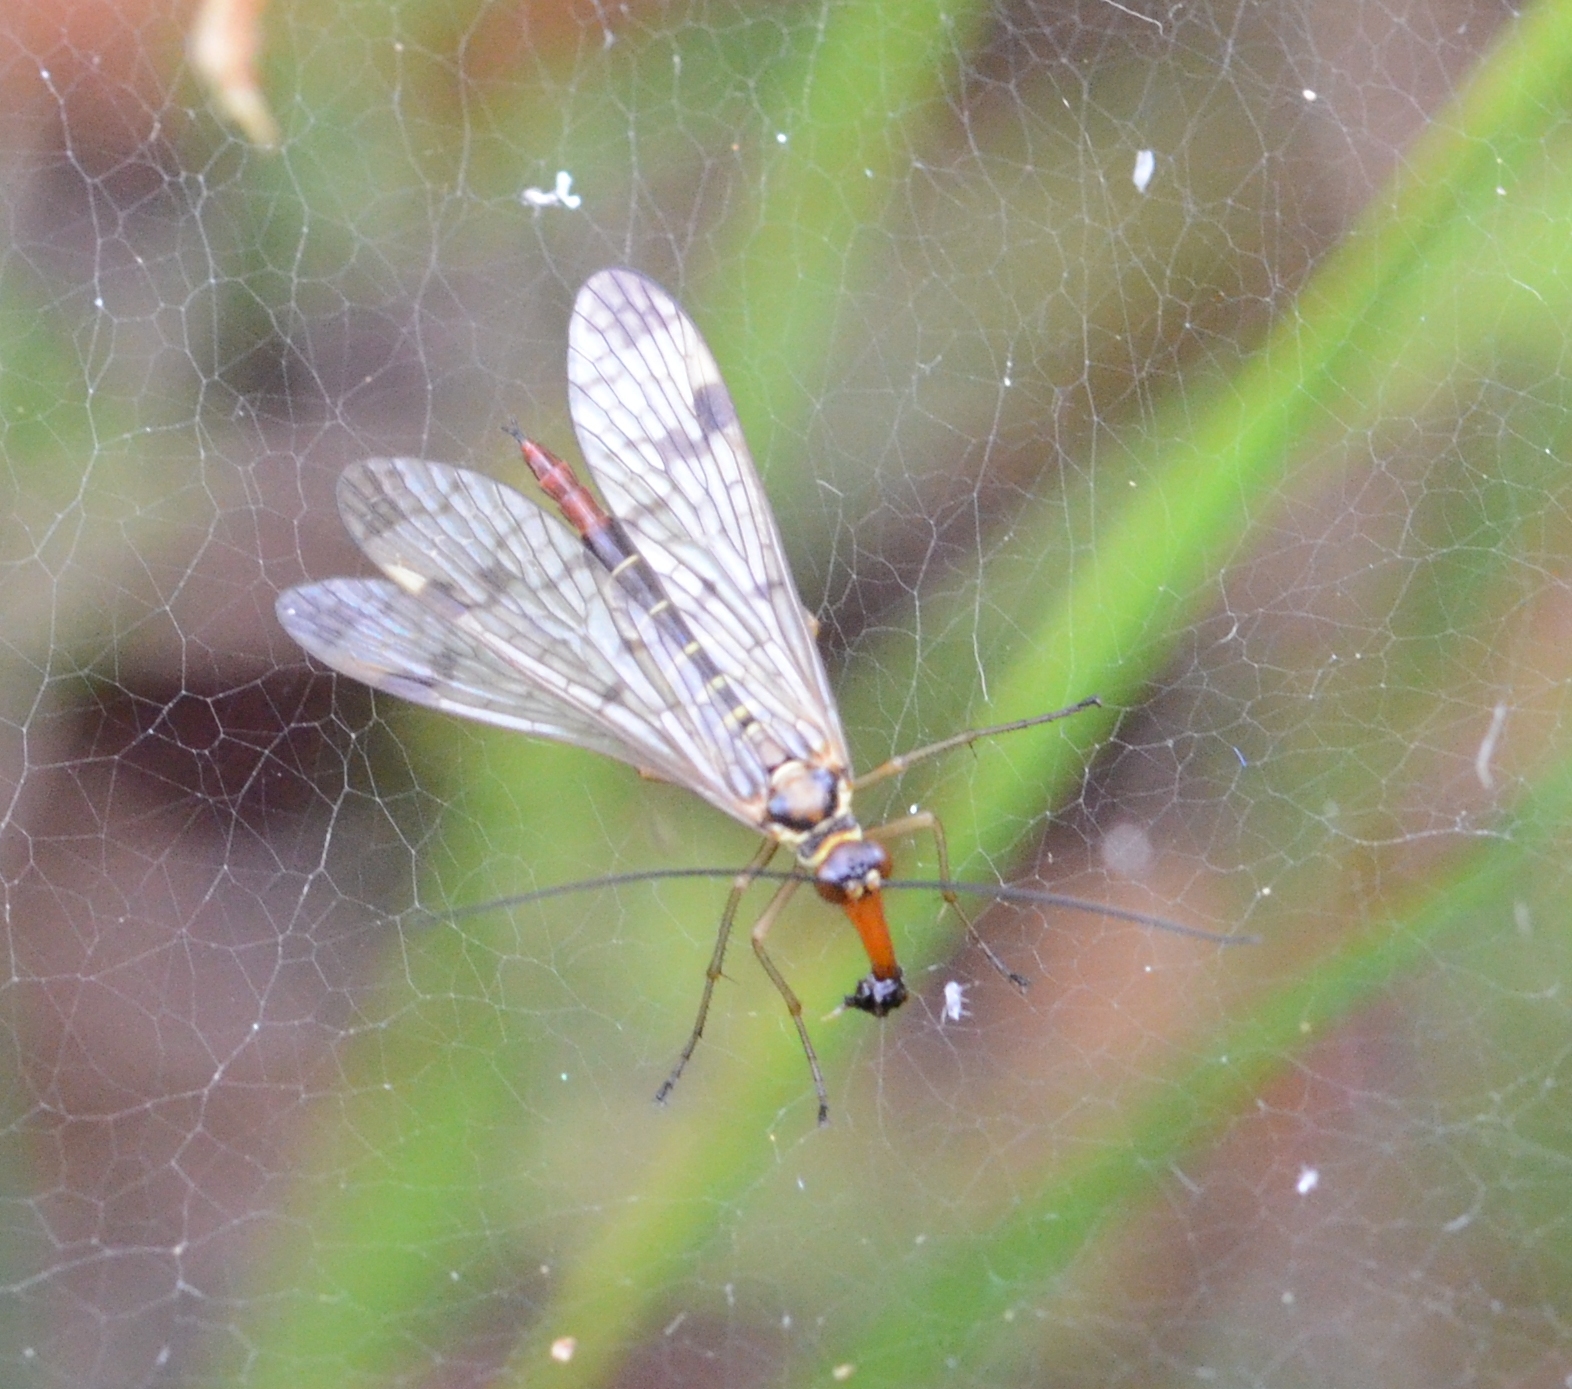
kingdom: Animalia
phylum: Arthropoda
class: Insecta
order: Mecoptera
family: Panorpidae
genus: Panorpa
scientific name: Panorpa cognata
